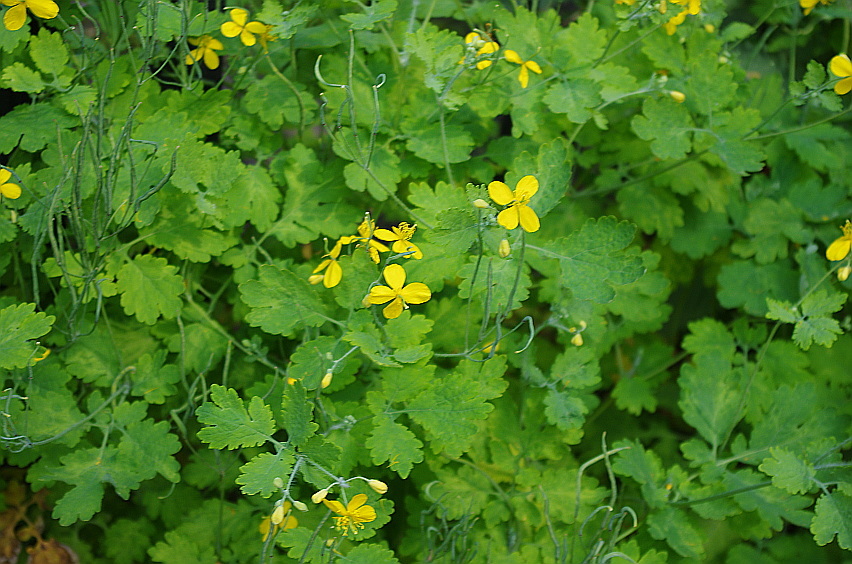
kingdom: Plantae
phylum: Tracheophyta
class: Magnoliopsida
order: Ranunculales
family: Papaveraceae
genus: Chelidonium
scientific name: Chelidonium majus
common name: Greater celandine
